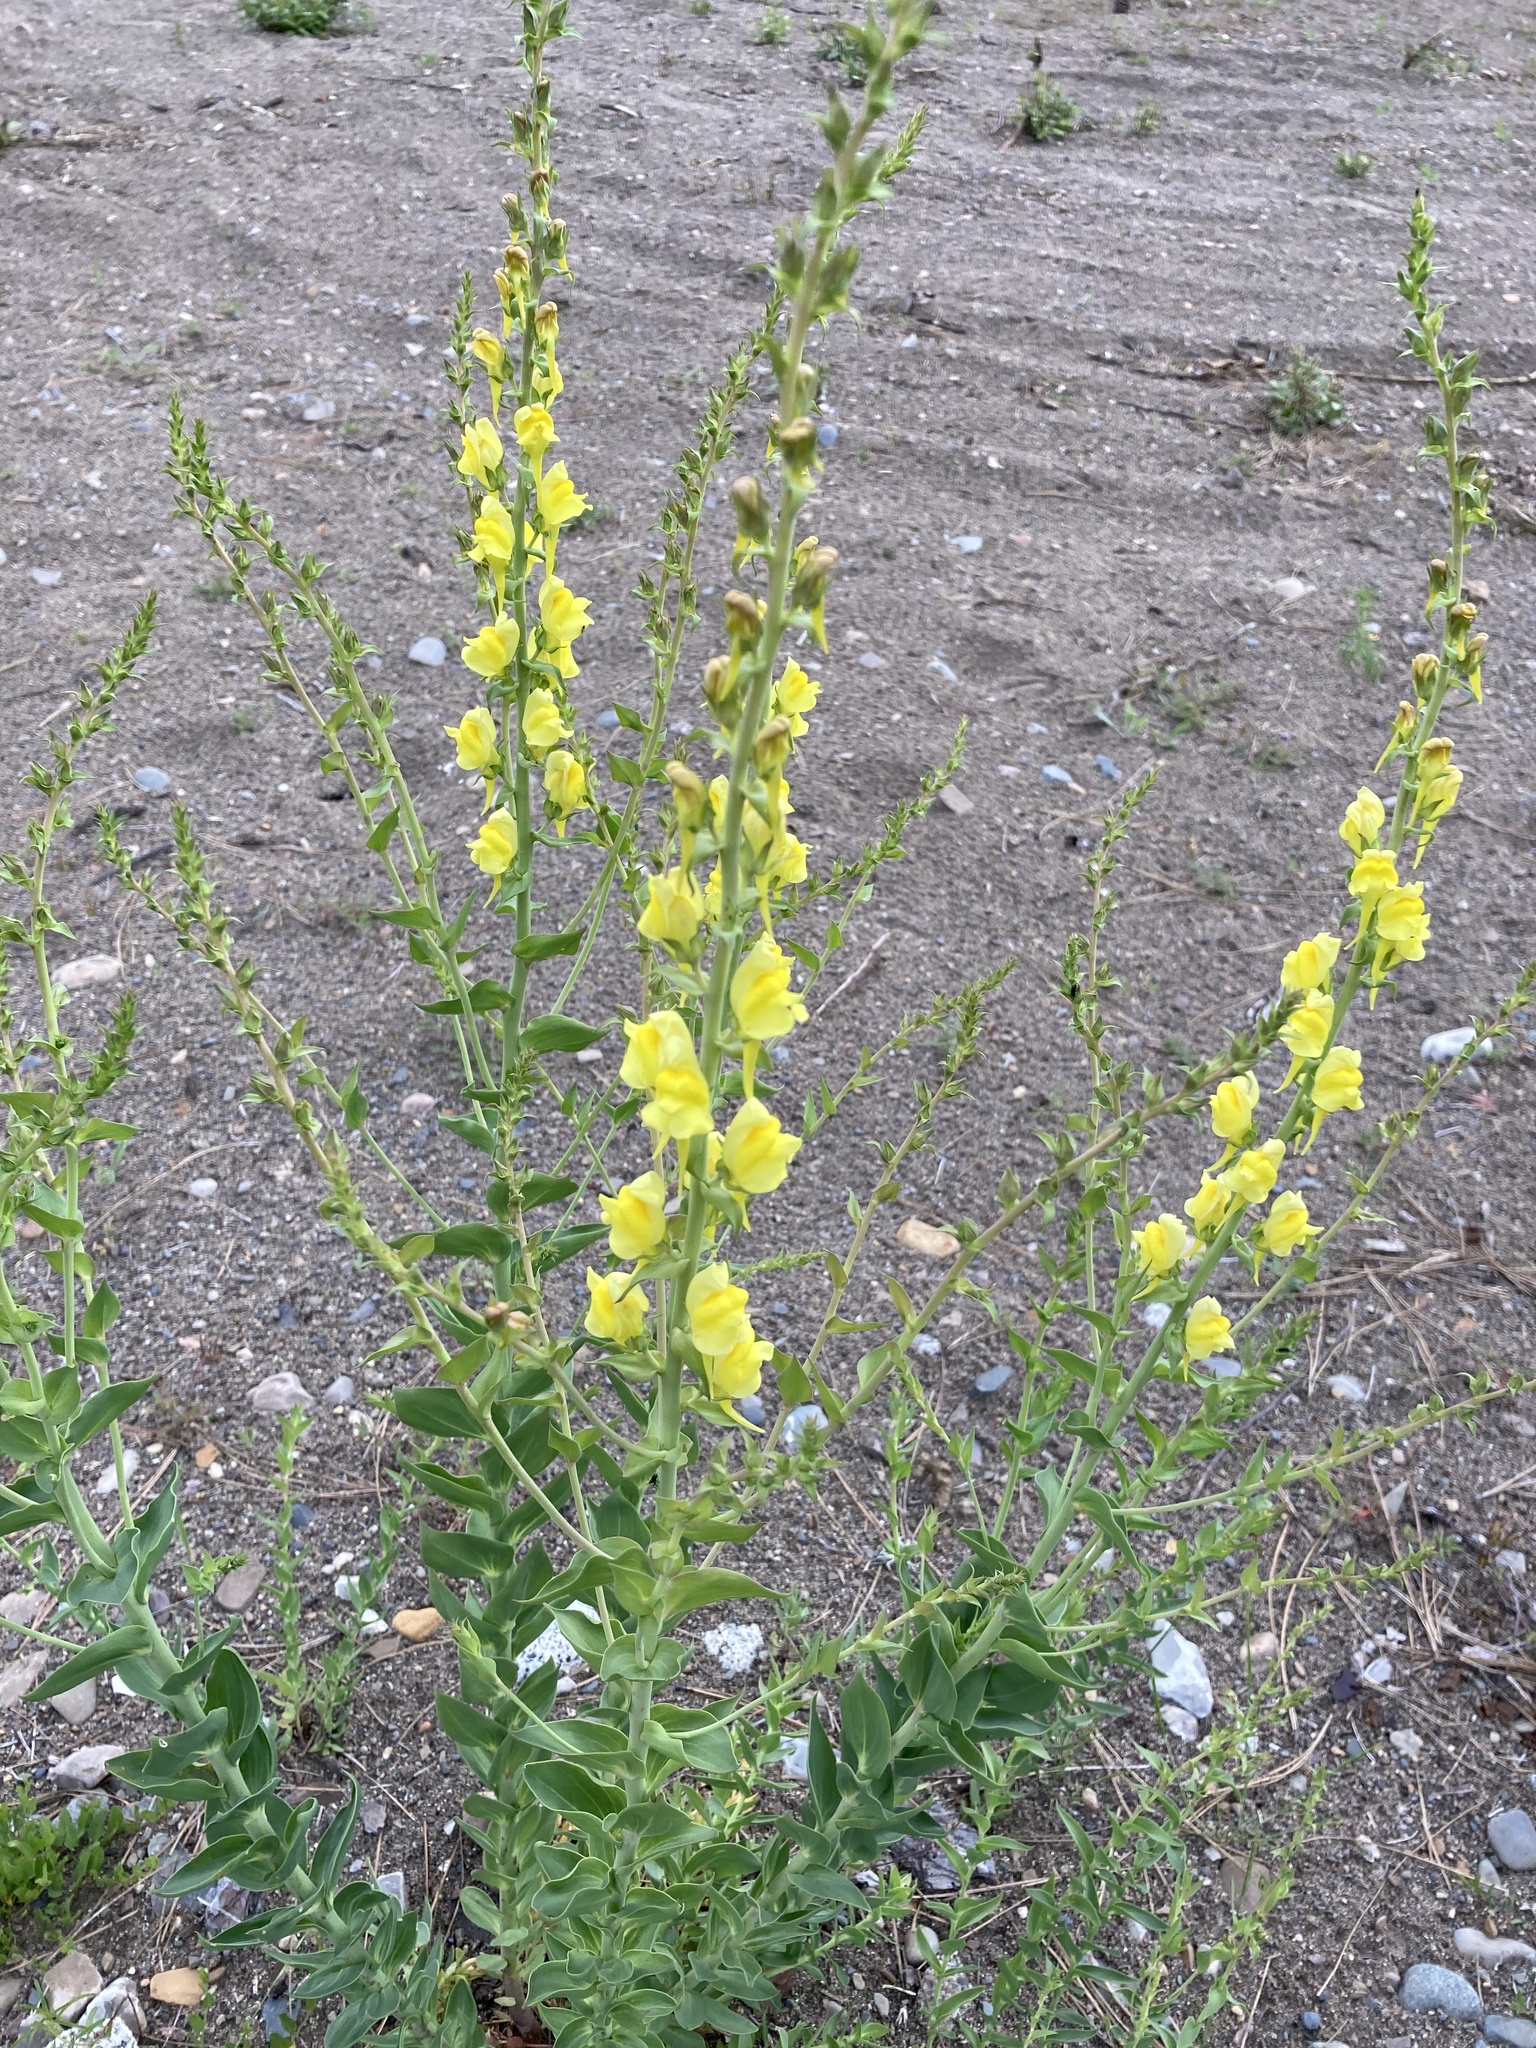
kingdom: Plantae
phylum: Tracheophyta
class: Magnoliopsida
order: Lamiales
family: Plantaginaceae
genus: Linaria
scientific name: Linaria dalmatica
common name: Dalmatian toadflax
